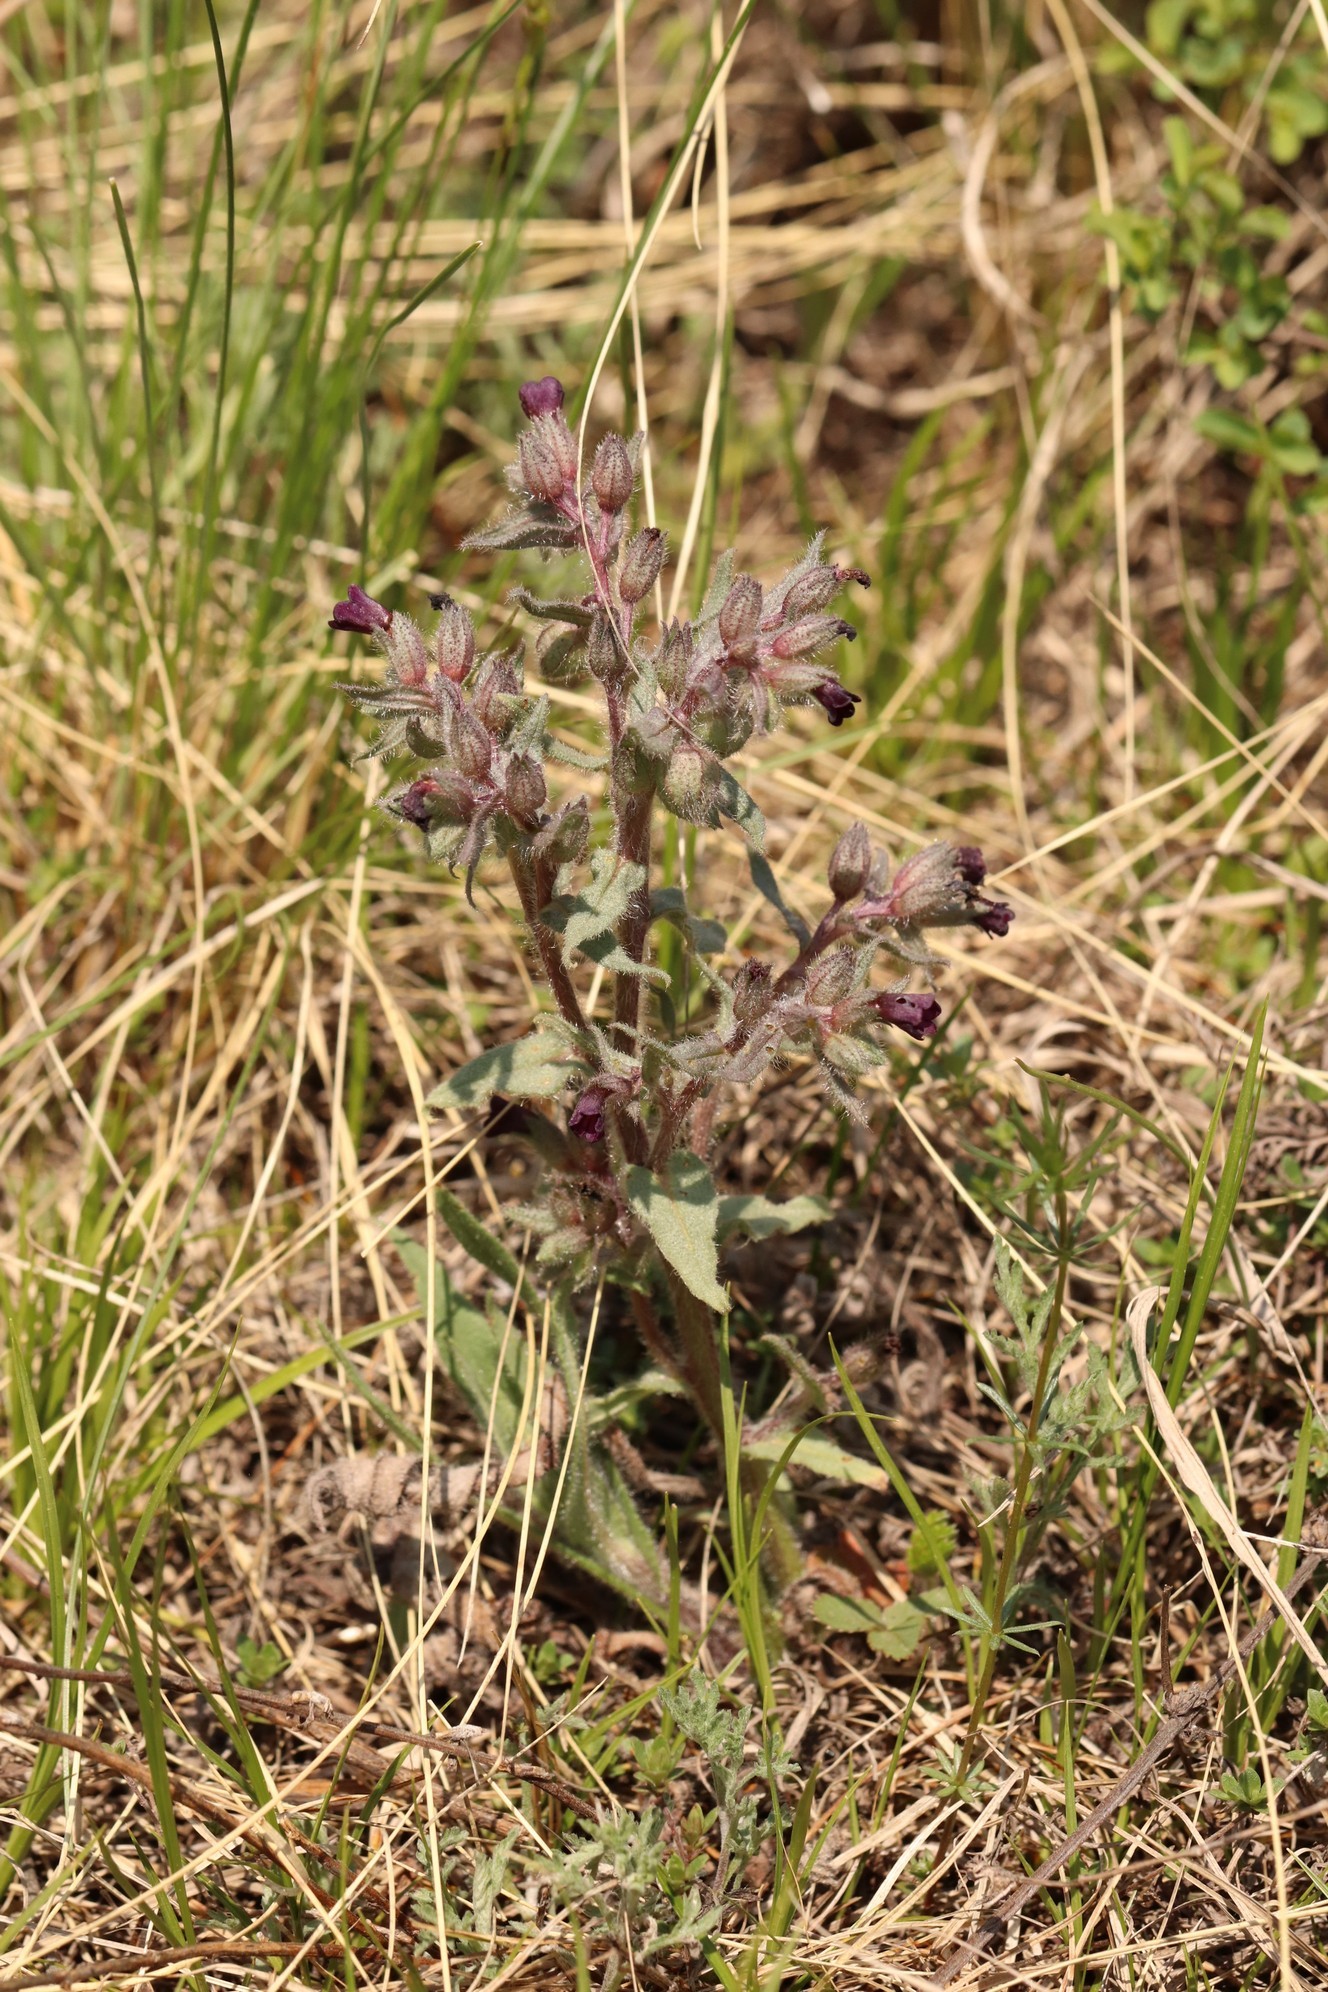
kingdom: Plantae
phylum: Tracheophyta
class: Magnoliopsida
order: Boraginales
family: Boraginaceae
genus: Nonea
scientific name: Nonea pulla
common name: Brown nonea
